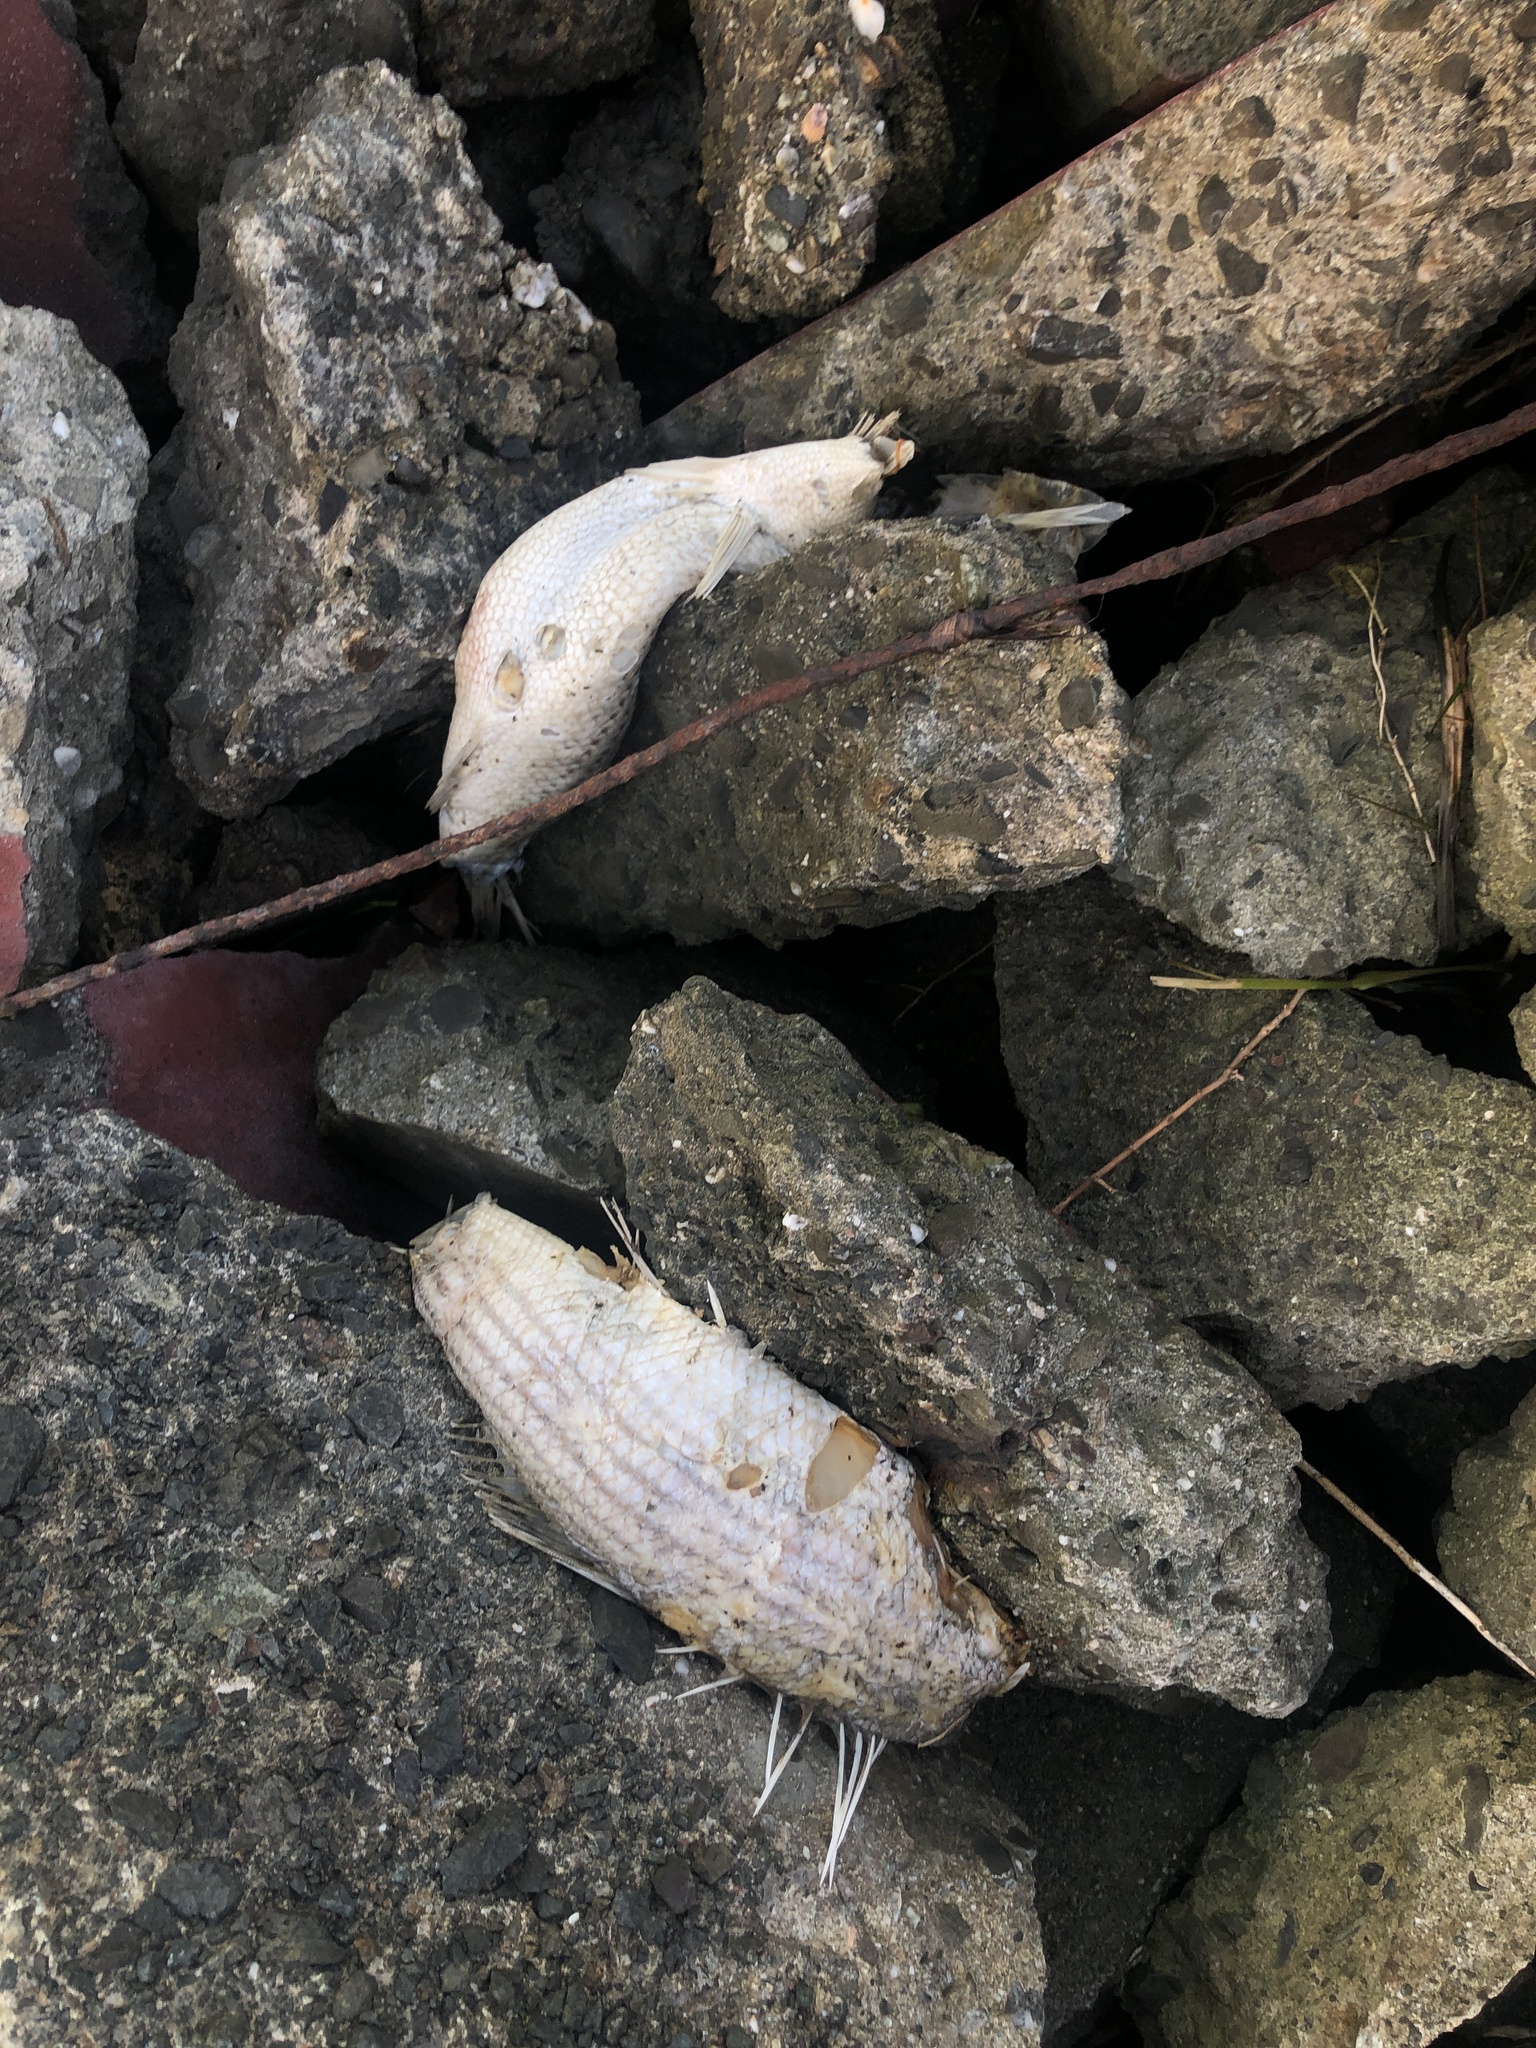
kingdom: Animalia
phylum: Chordata
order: Perciformes
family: Moronidae
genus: Morone
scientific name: Morone saxatilis
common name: Striped bass
